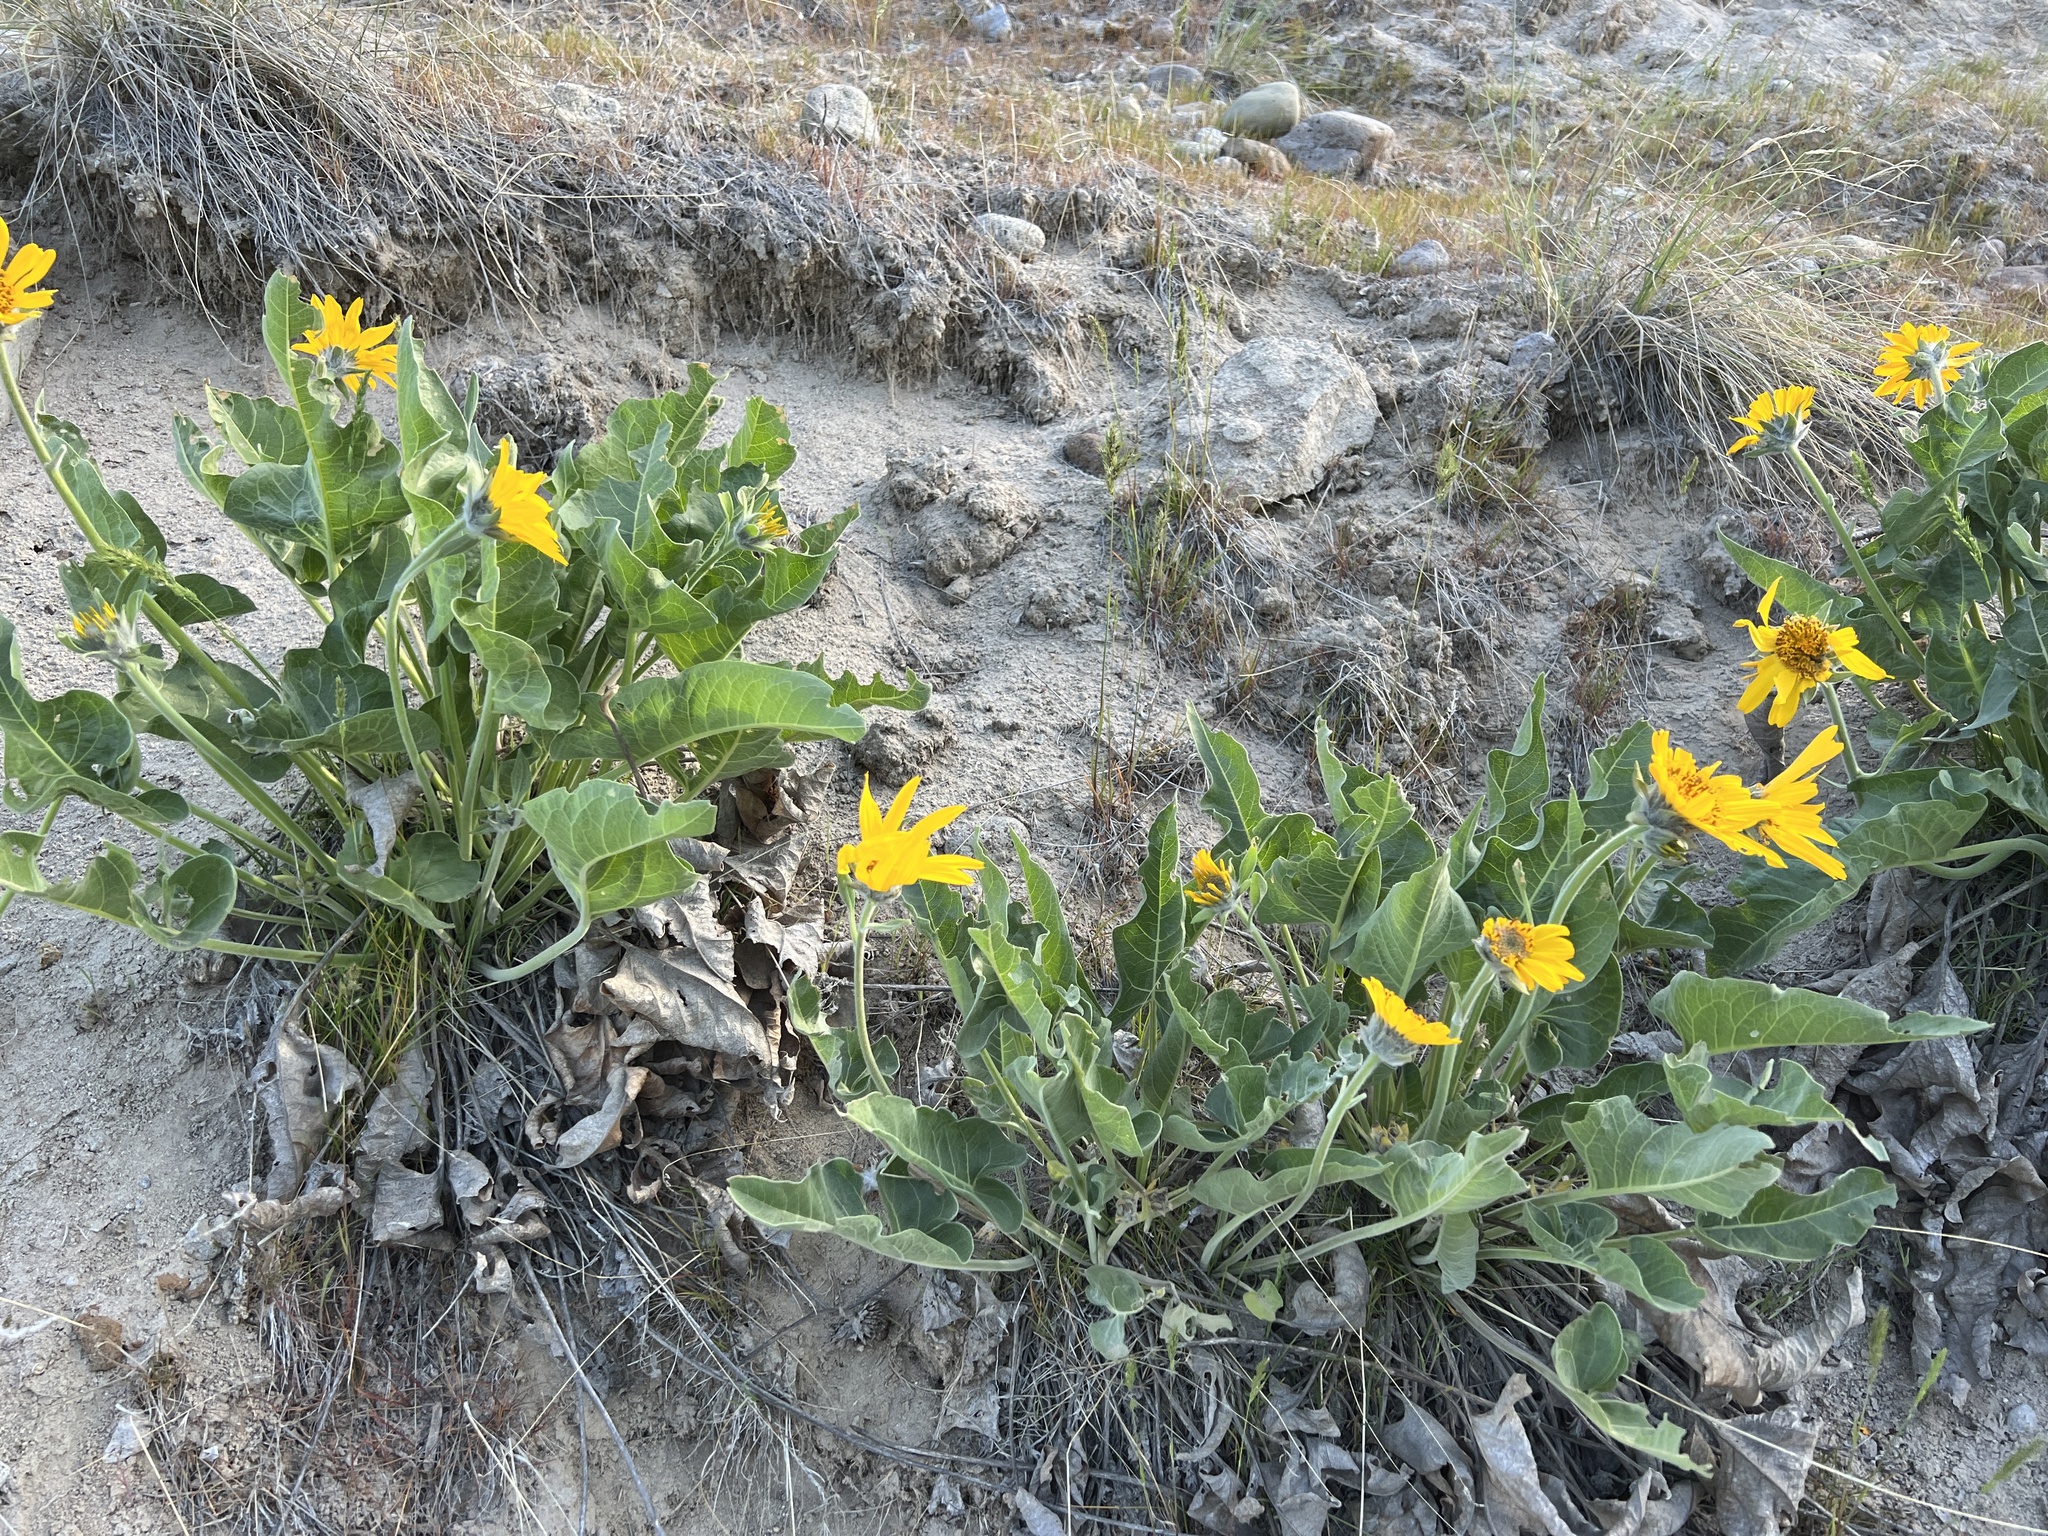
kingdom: Plantae
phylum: Tracheophyta
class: Magnoliopsida
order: Asterales
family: Asteraceae
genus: Wyethia
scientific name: Wyethia sagittata
